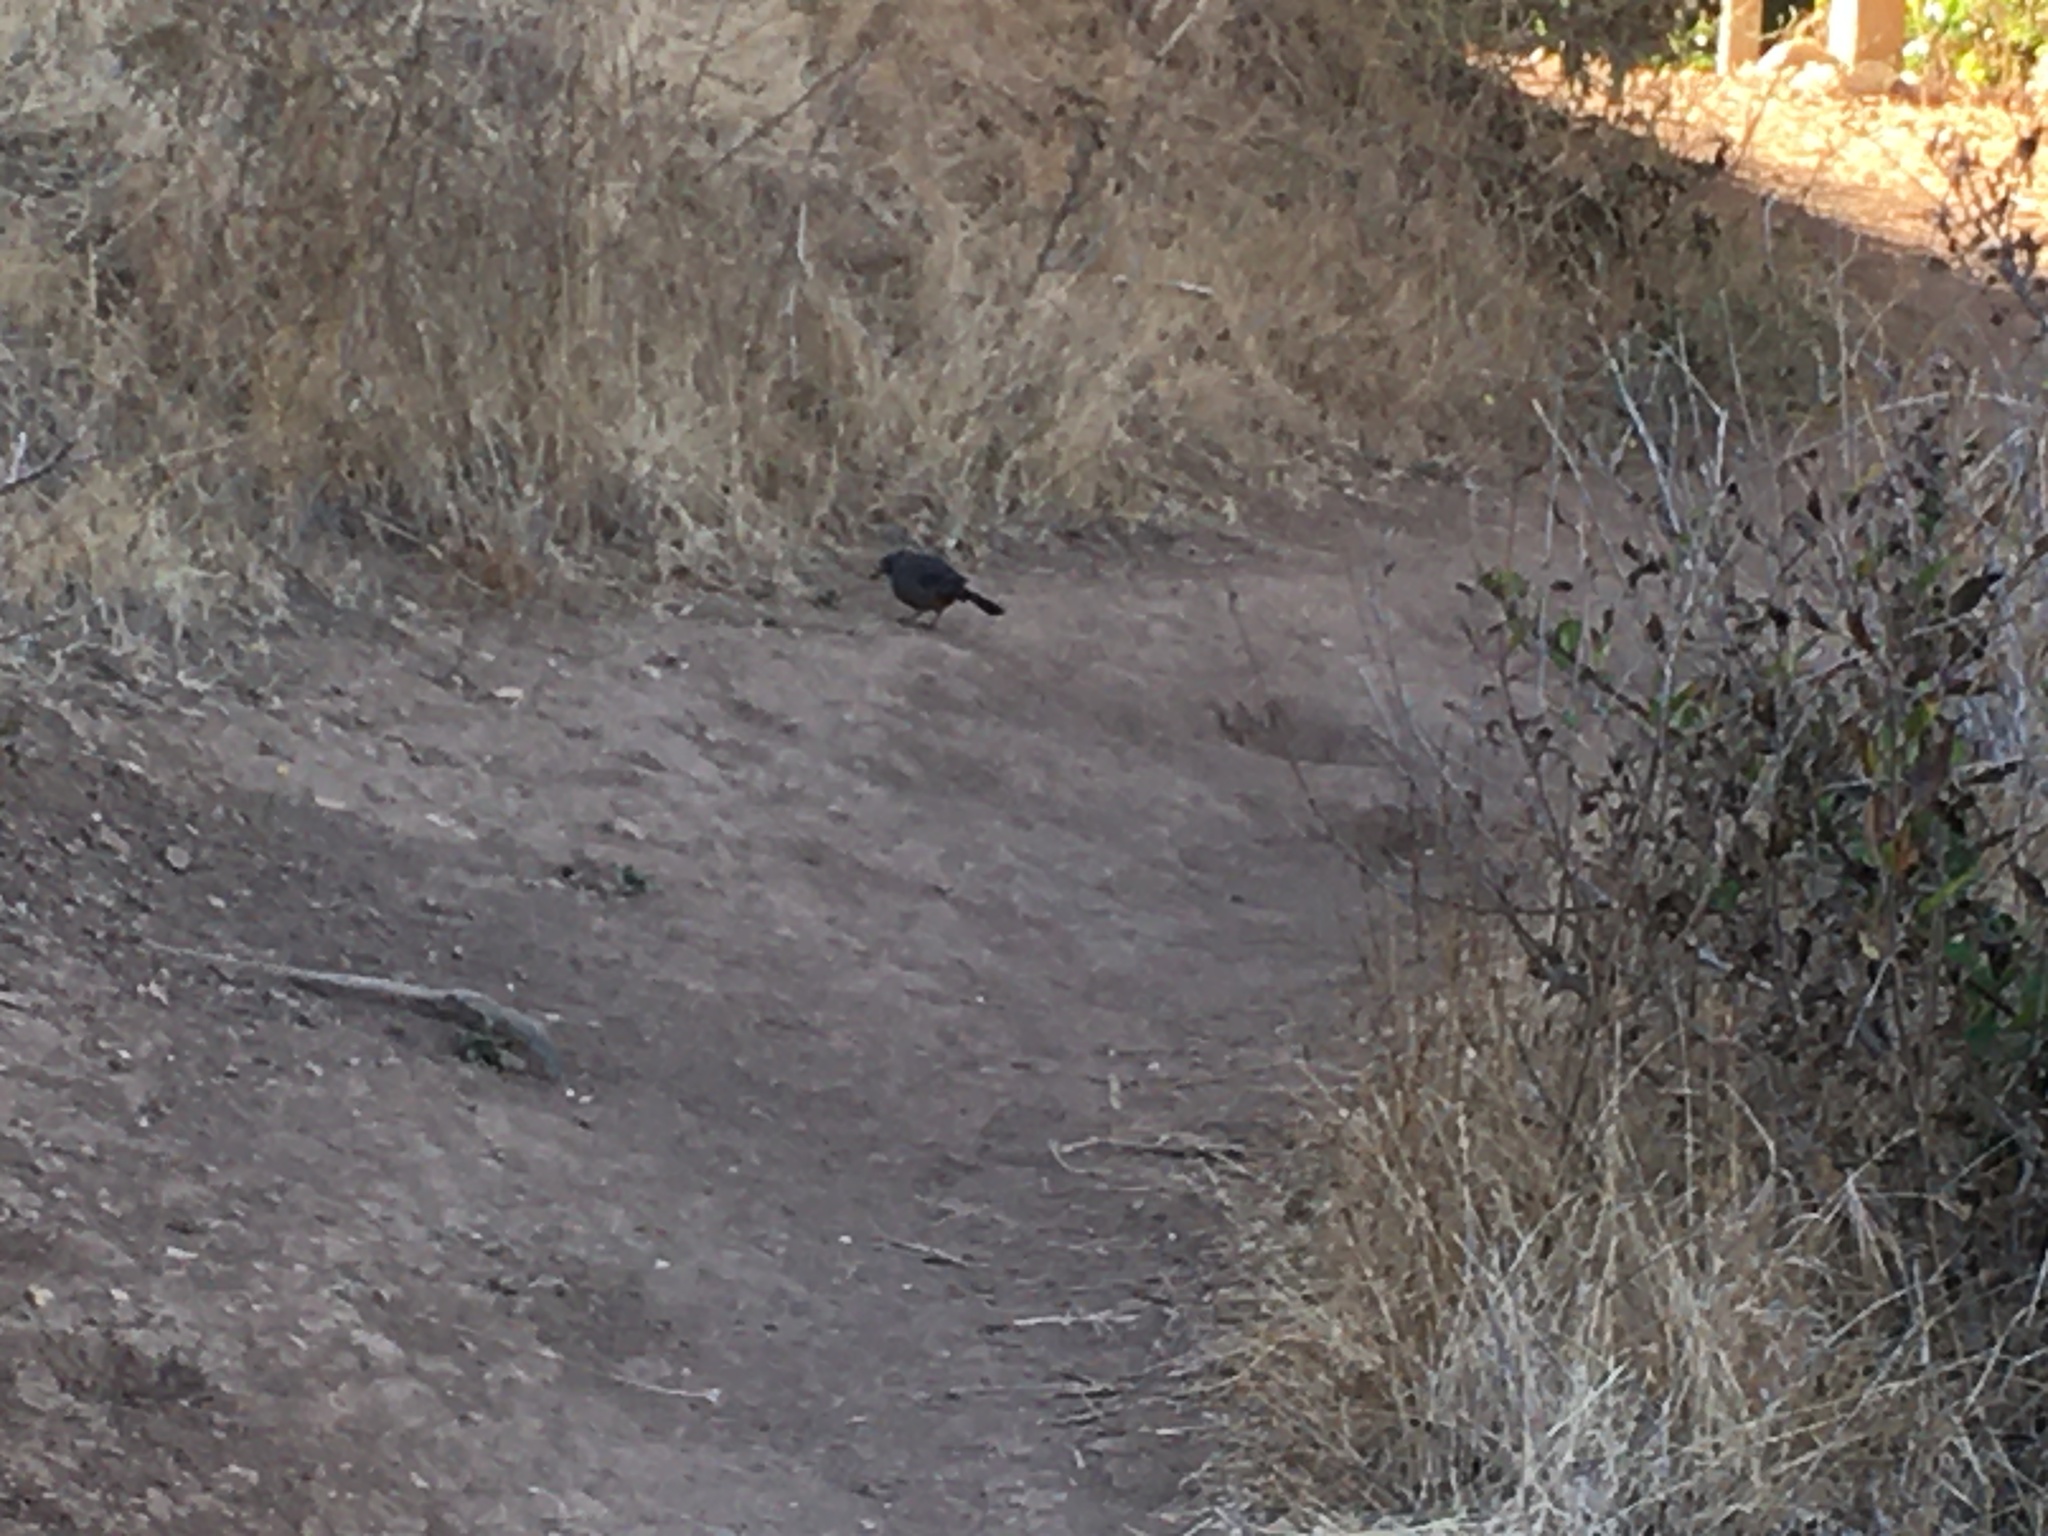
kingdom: Animalia
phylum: Chordata
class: Aves
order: Passeriformes
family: Passerellidae
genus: Melozone
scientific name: Melozone crissalis
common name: California towhee
